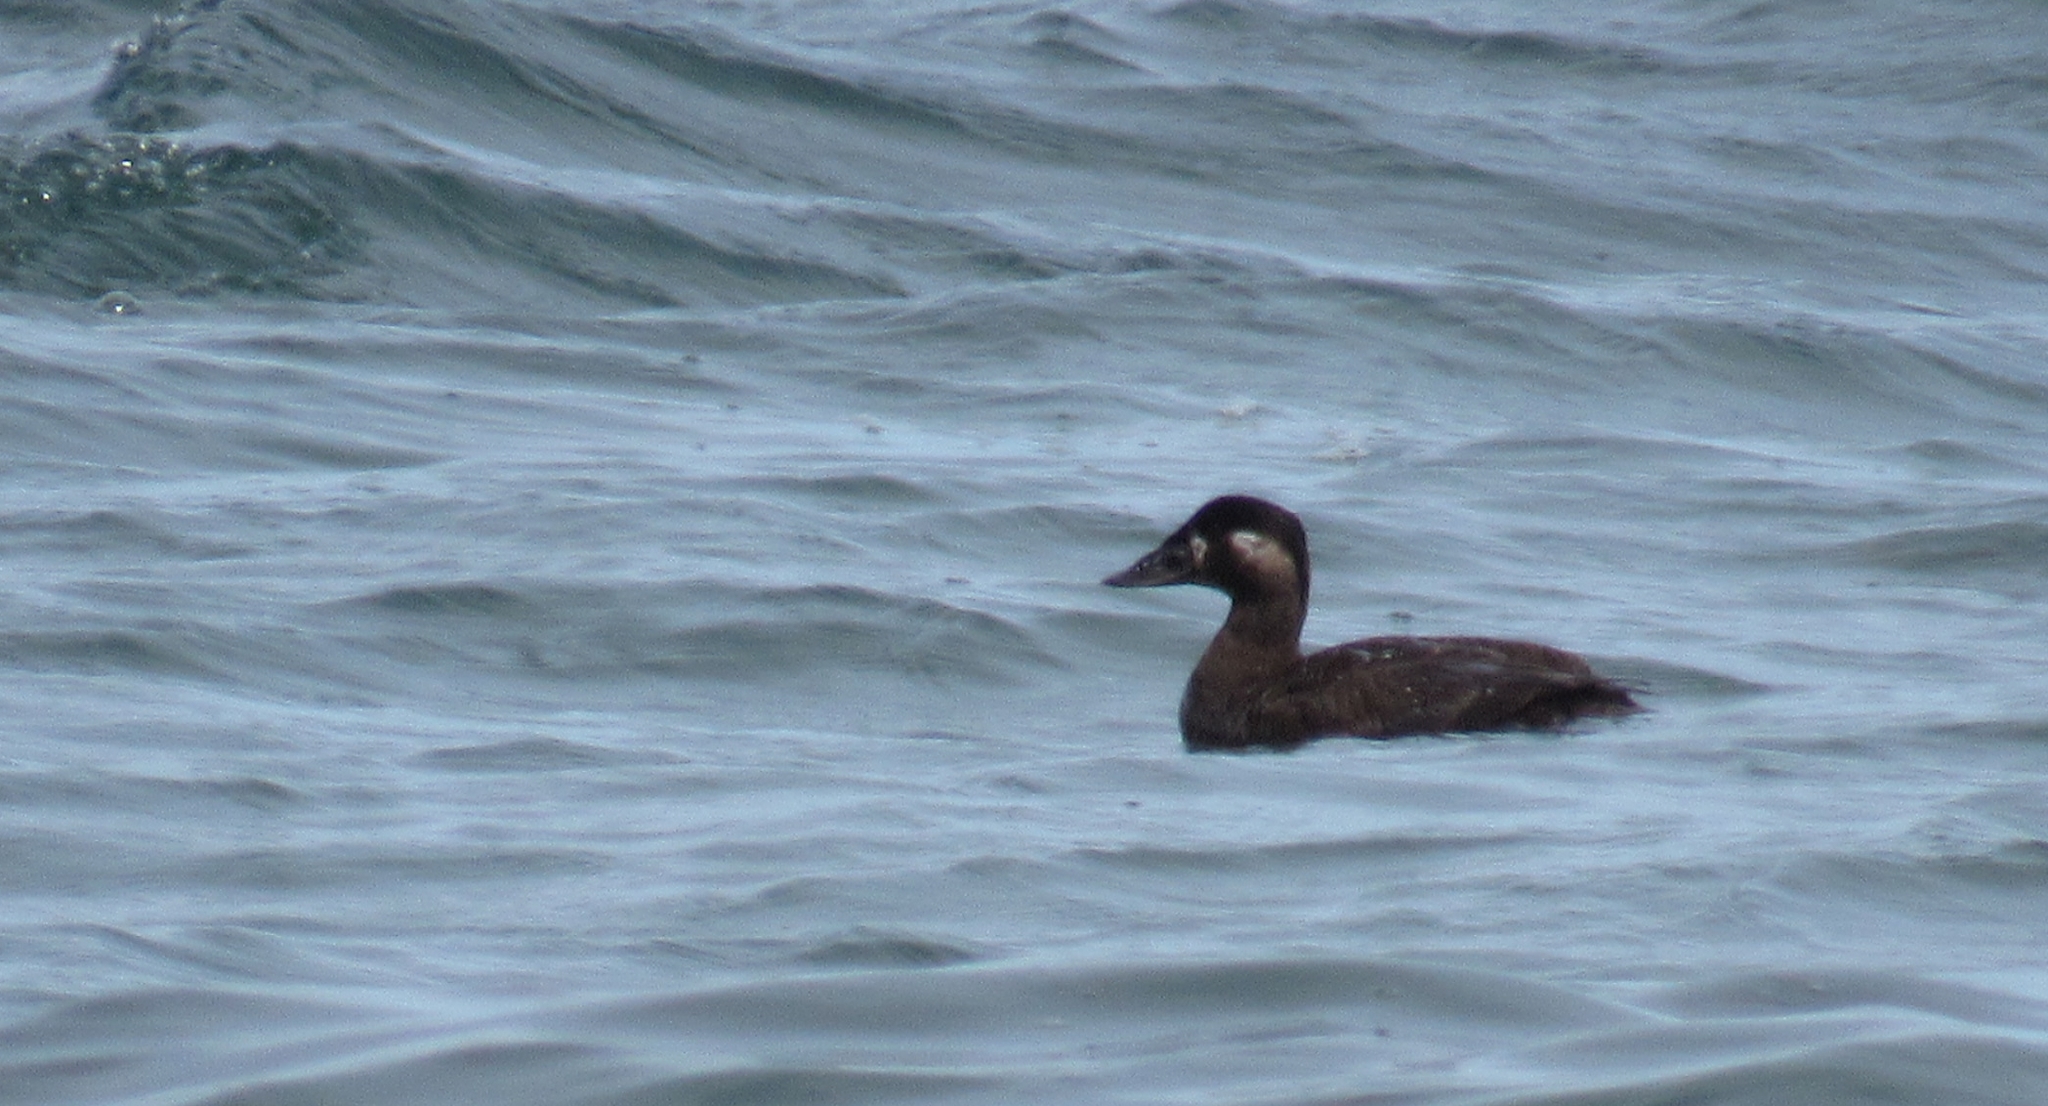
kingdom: Animalia
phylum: Chordata
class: Aves
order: Anseriformes
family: Anatidae
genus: Melanitta
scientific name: Melanitta perspicillata
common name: Surf scoter
